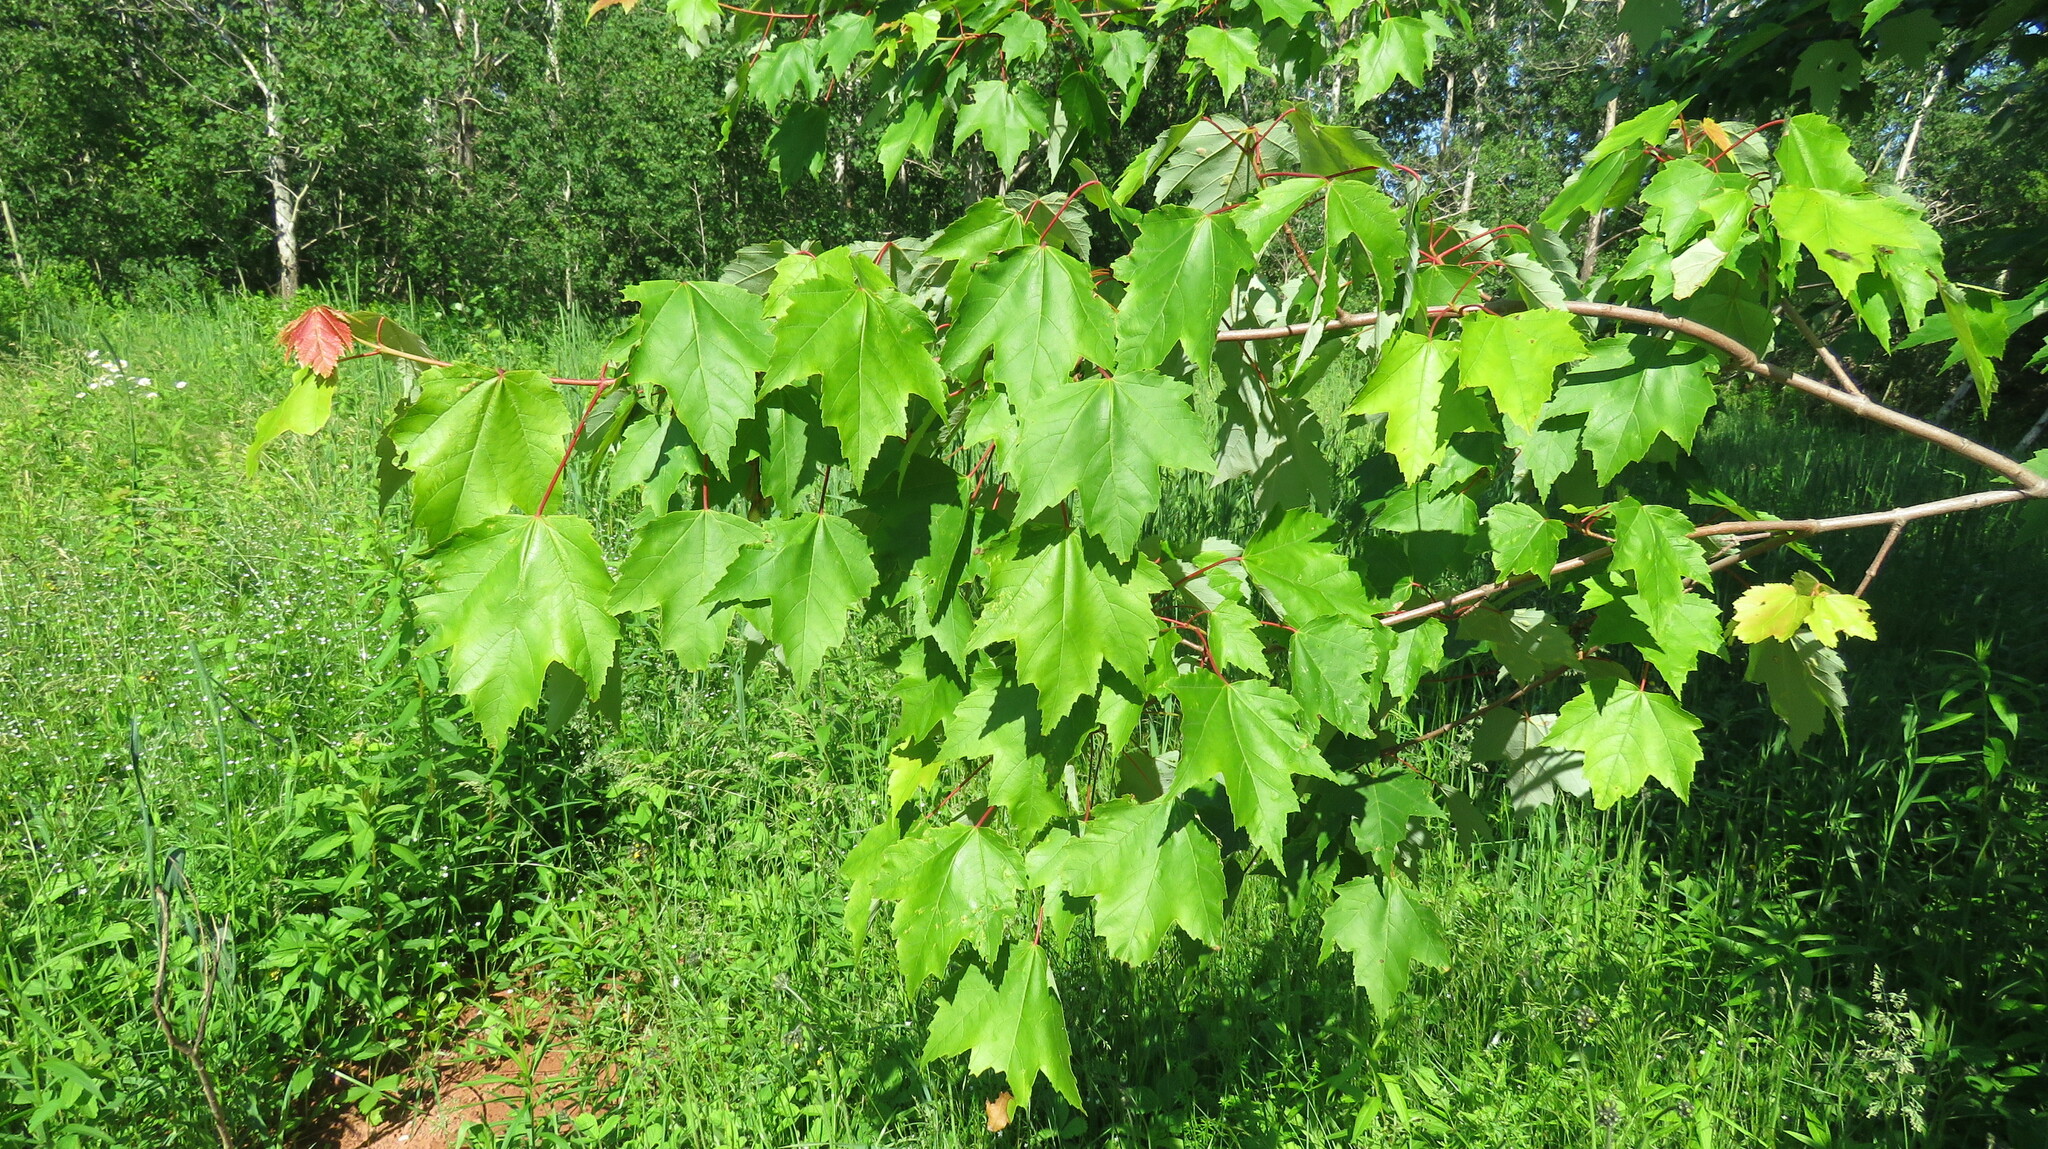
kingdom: Plantae
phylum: Tracheophyta
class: Magnoliopsida
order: Sapindales
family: Sapindaceae
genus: Acer
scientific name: Acer rubrum
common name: Red maple
